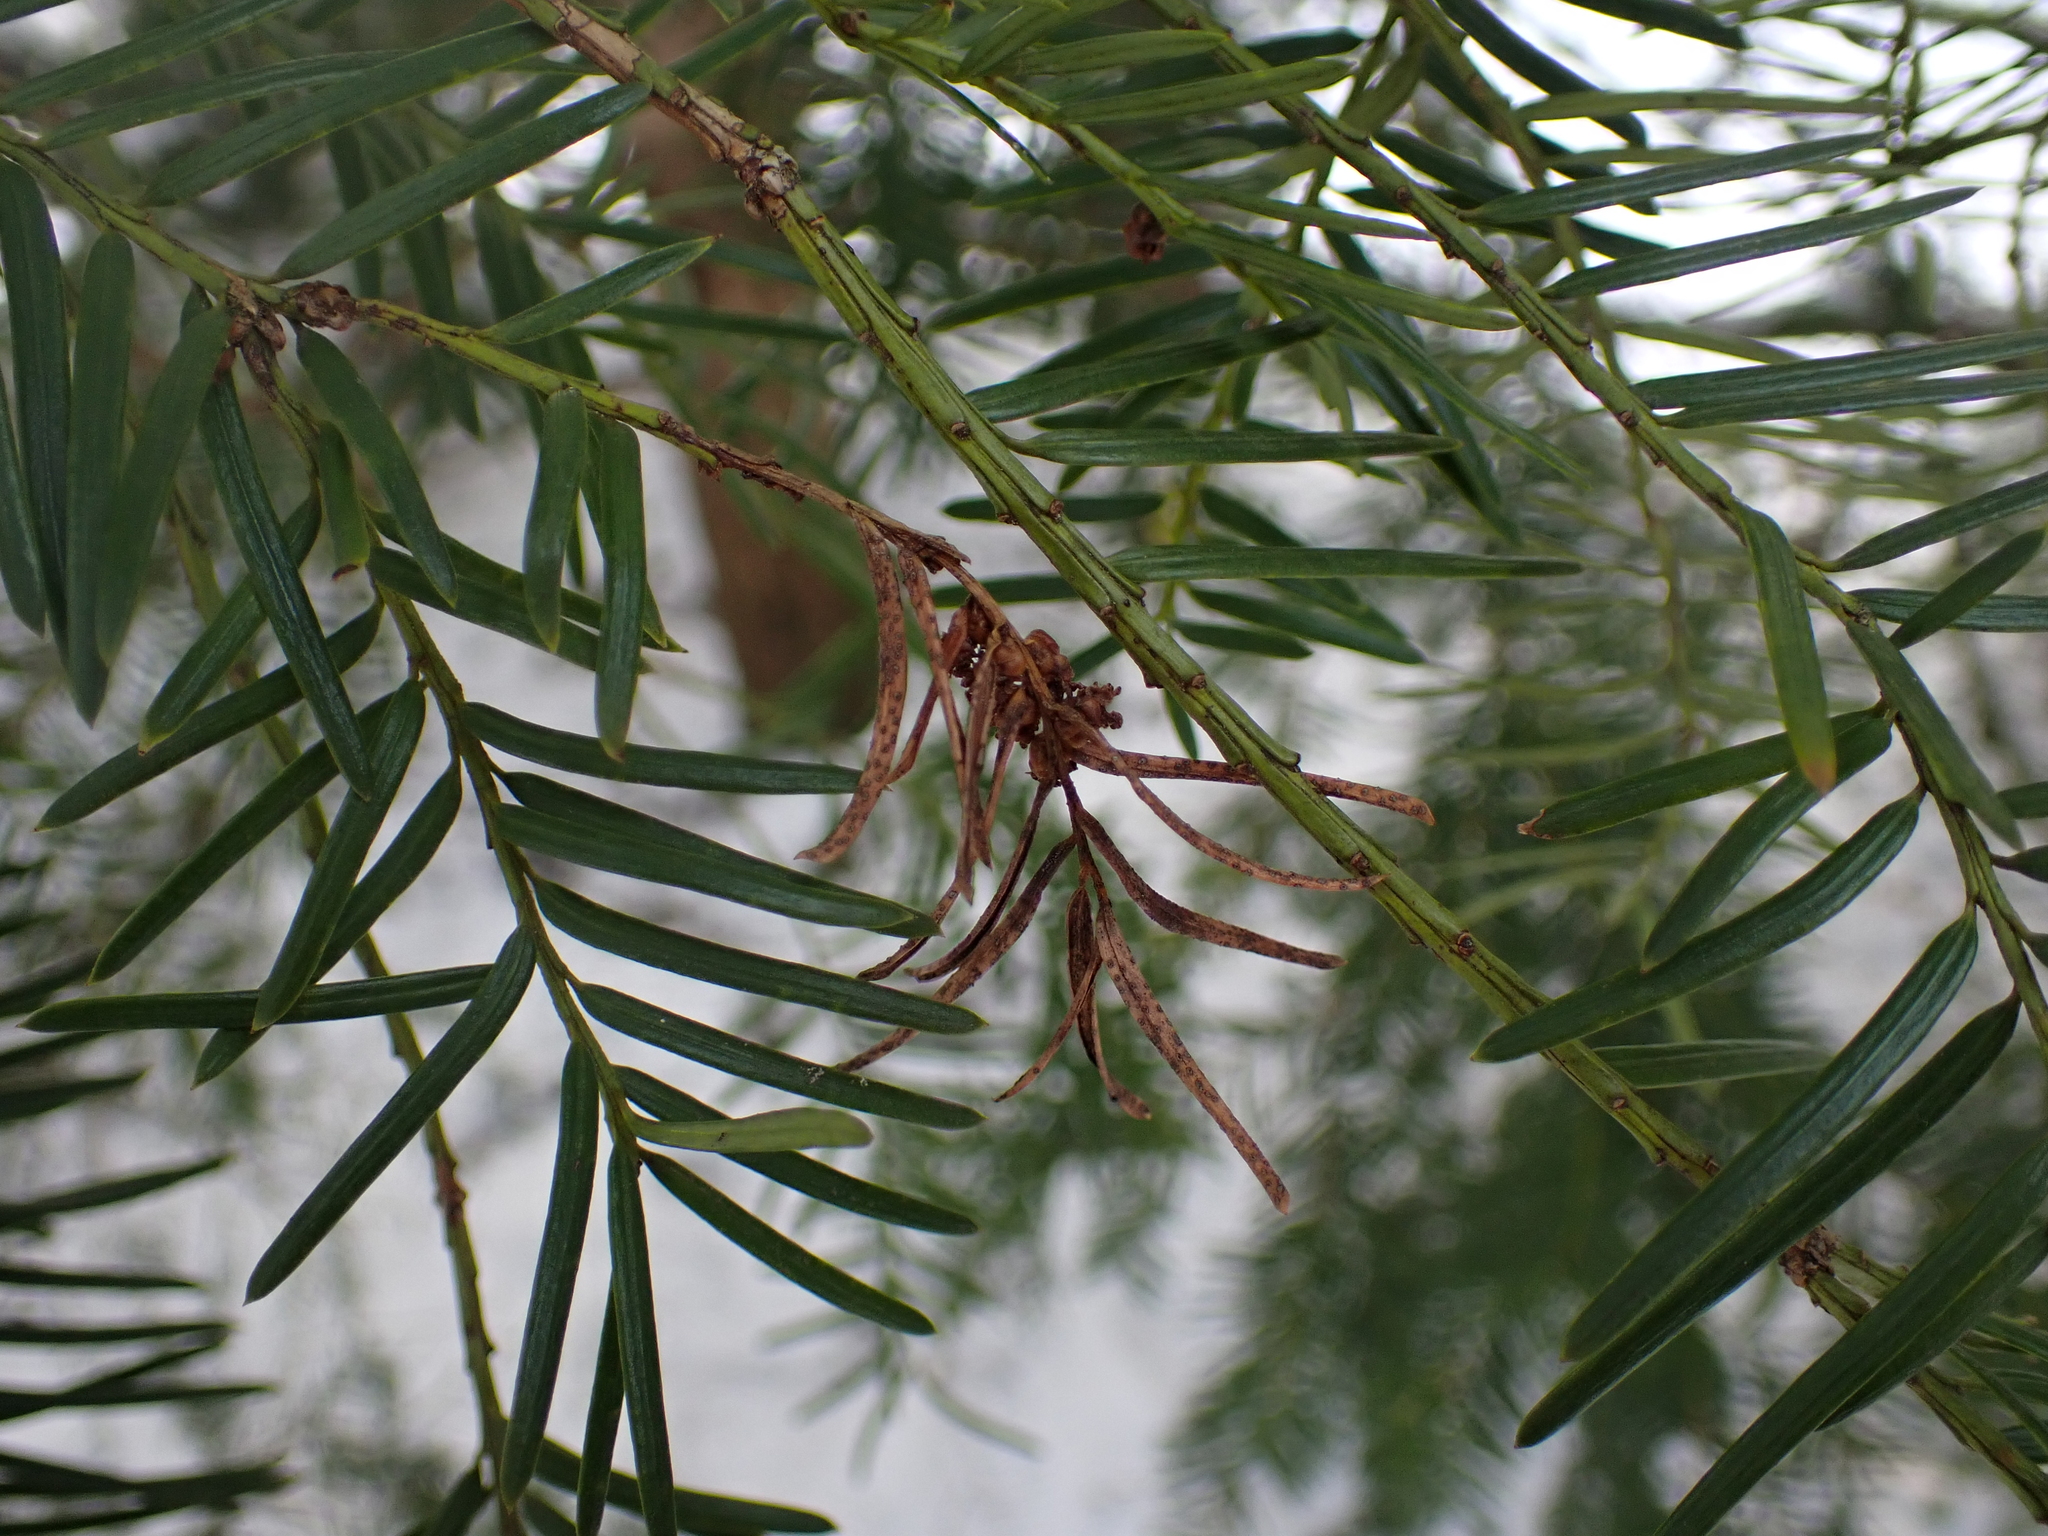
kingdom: Fungi
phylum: Ascomycota
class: Leotiomycetes
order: Helotiales
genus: Cryptocline
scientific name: Cryptocline taxicola
